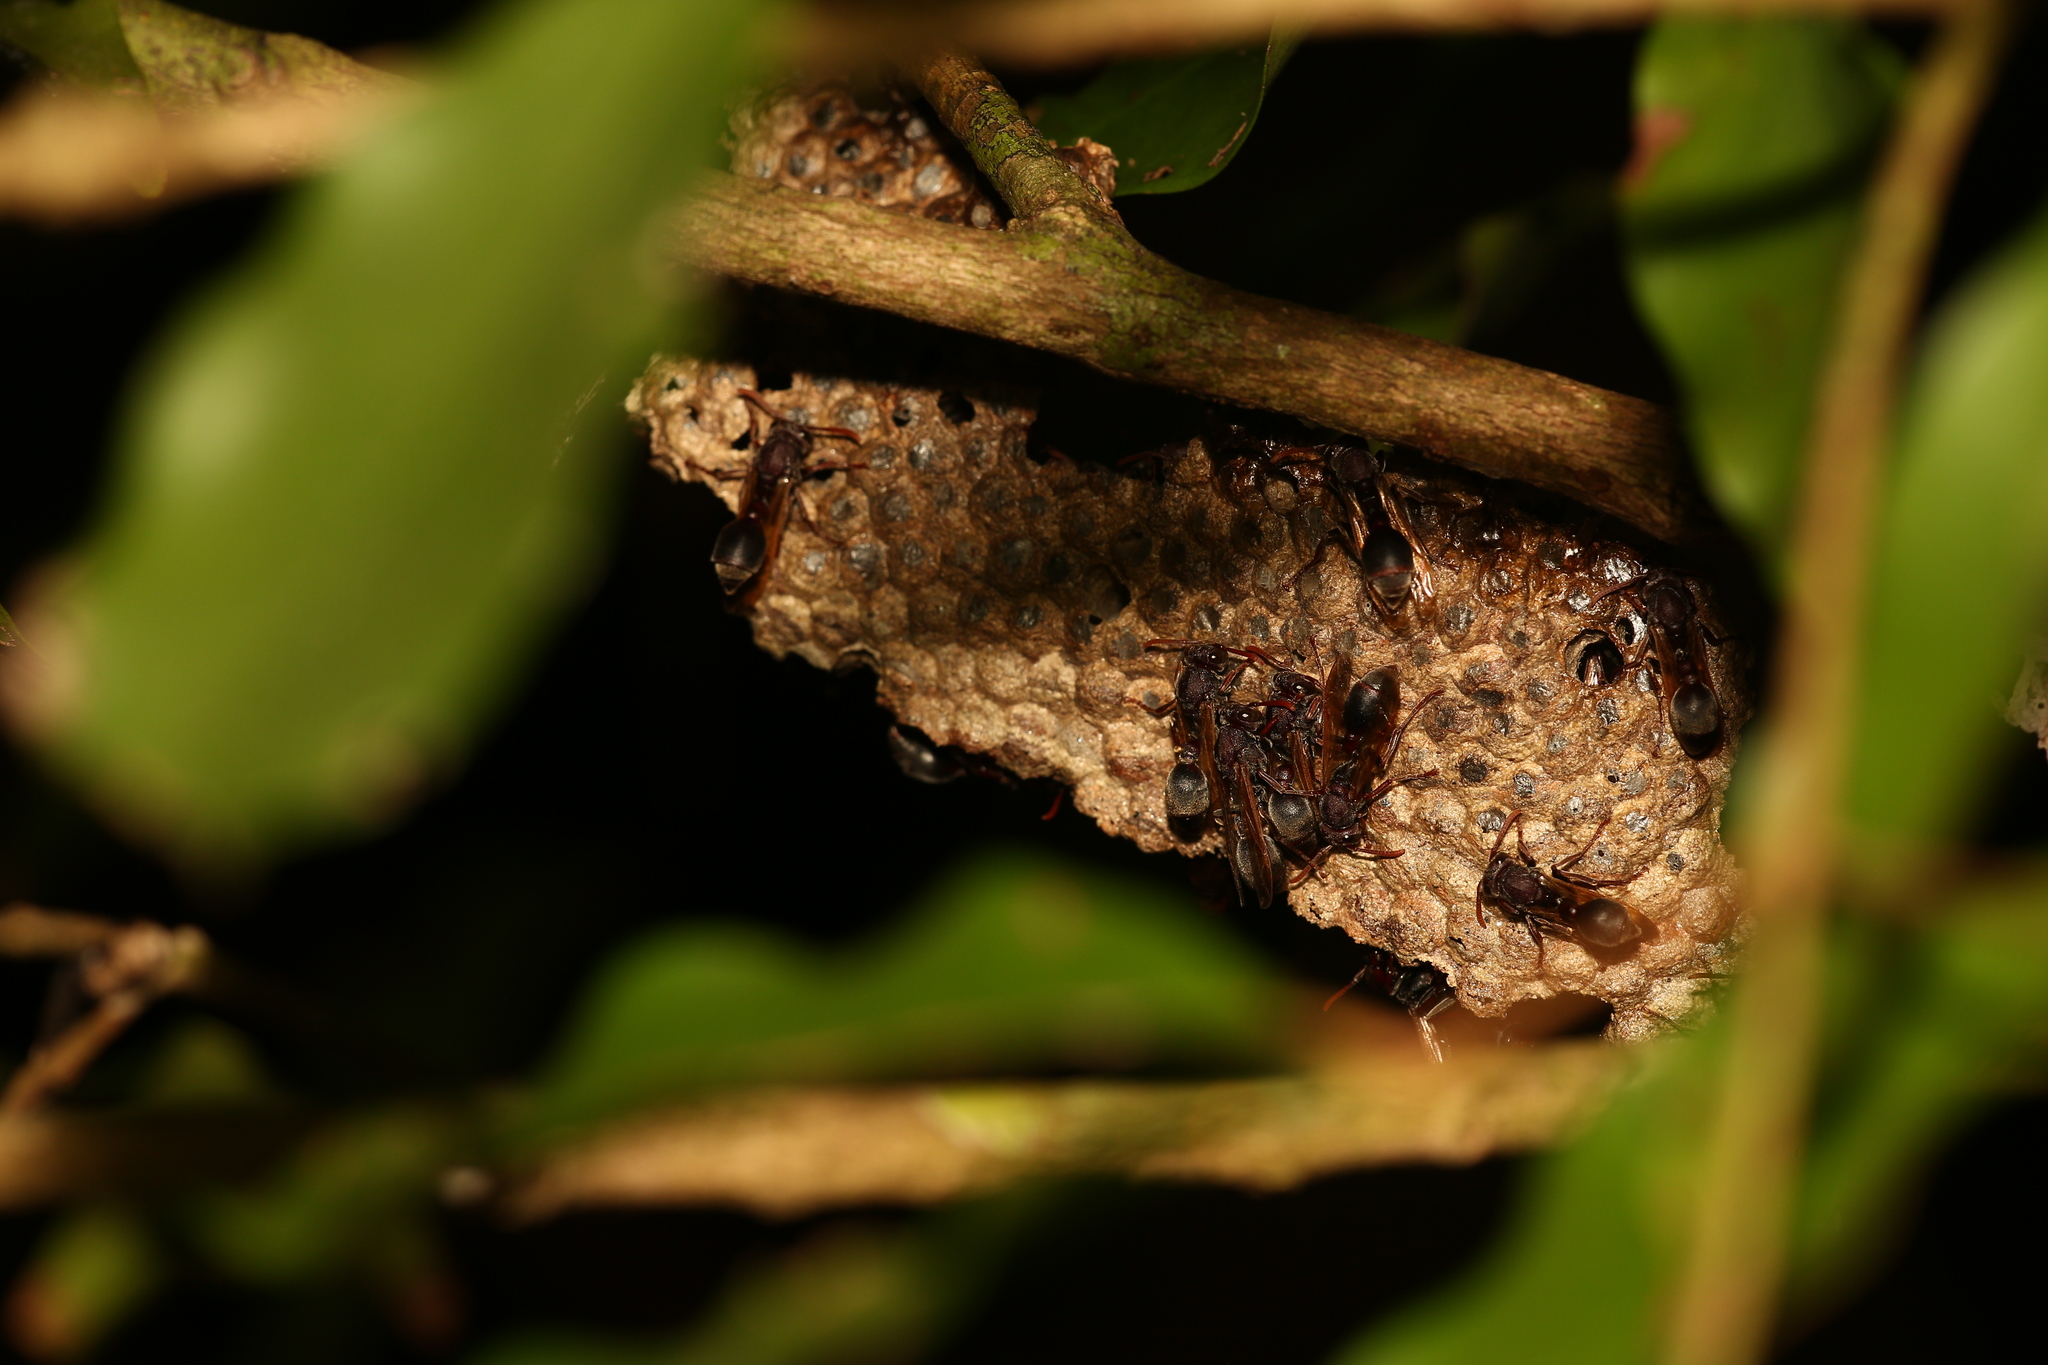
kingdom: Animalia
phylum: Arthropoda
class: Insecta
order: Hymenoptera
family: Vespidae
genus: Ropalidia
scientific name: Ropalidia clavata
